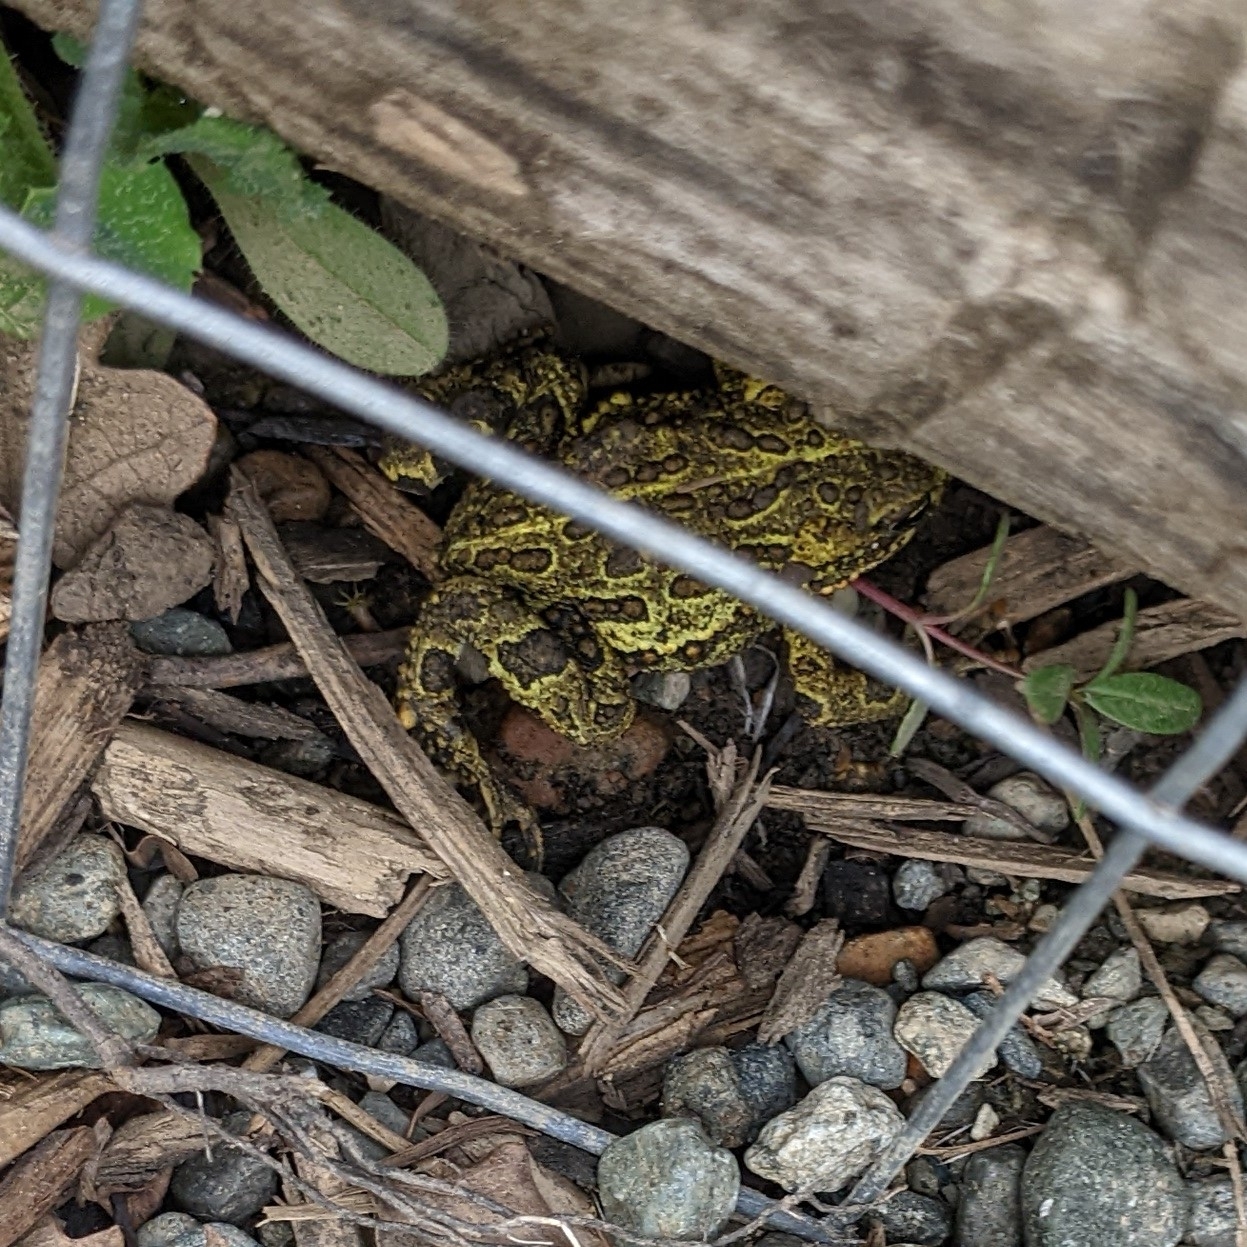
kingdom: Animalia
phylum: Chordata
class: Amphibia
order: Anura
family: Bufonidae
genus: Anaxyrus
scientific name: Anaxyrus boreas
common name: Western toad
